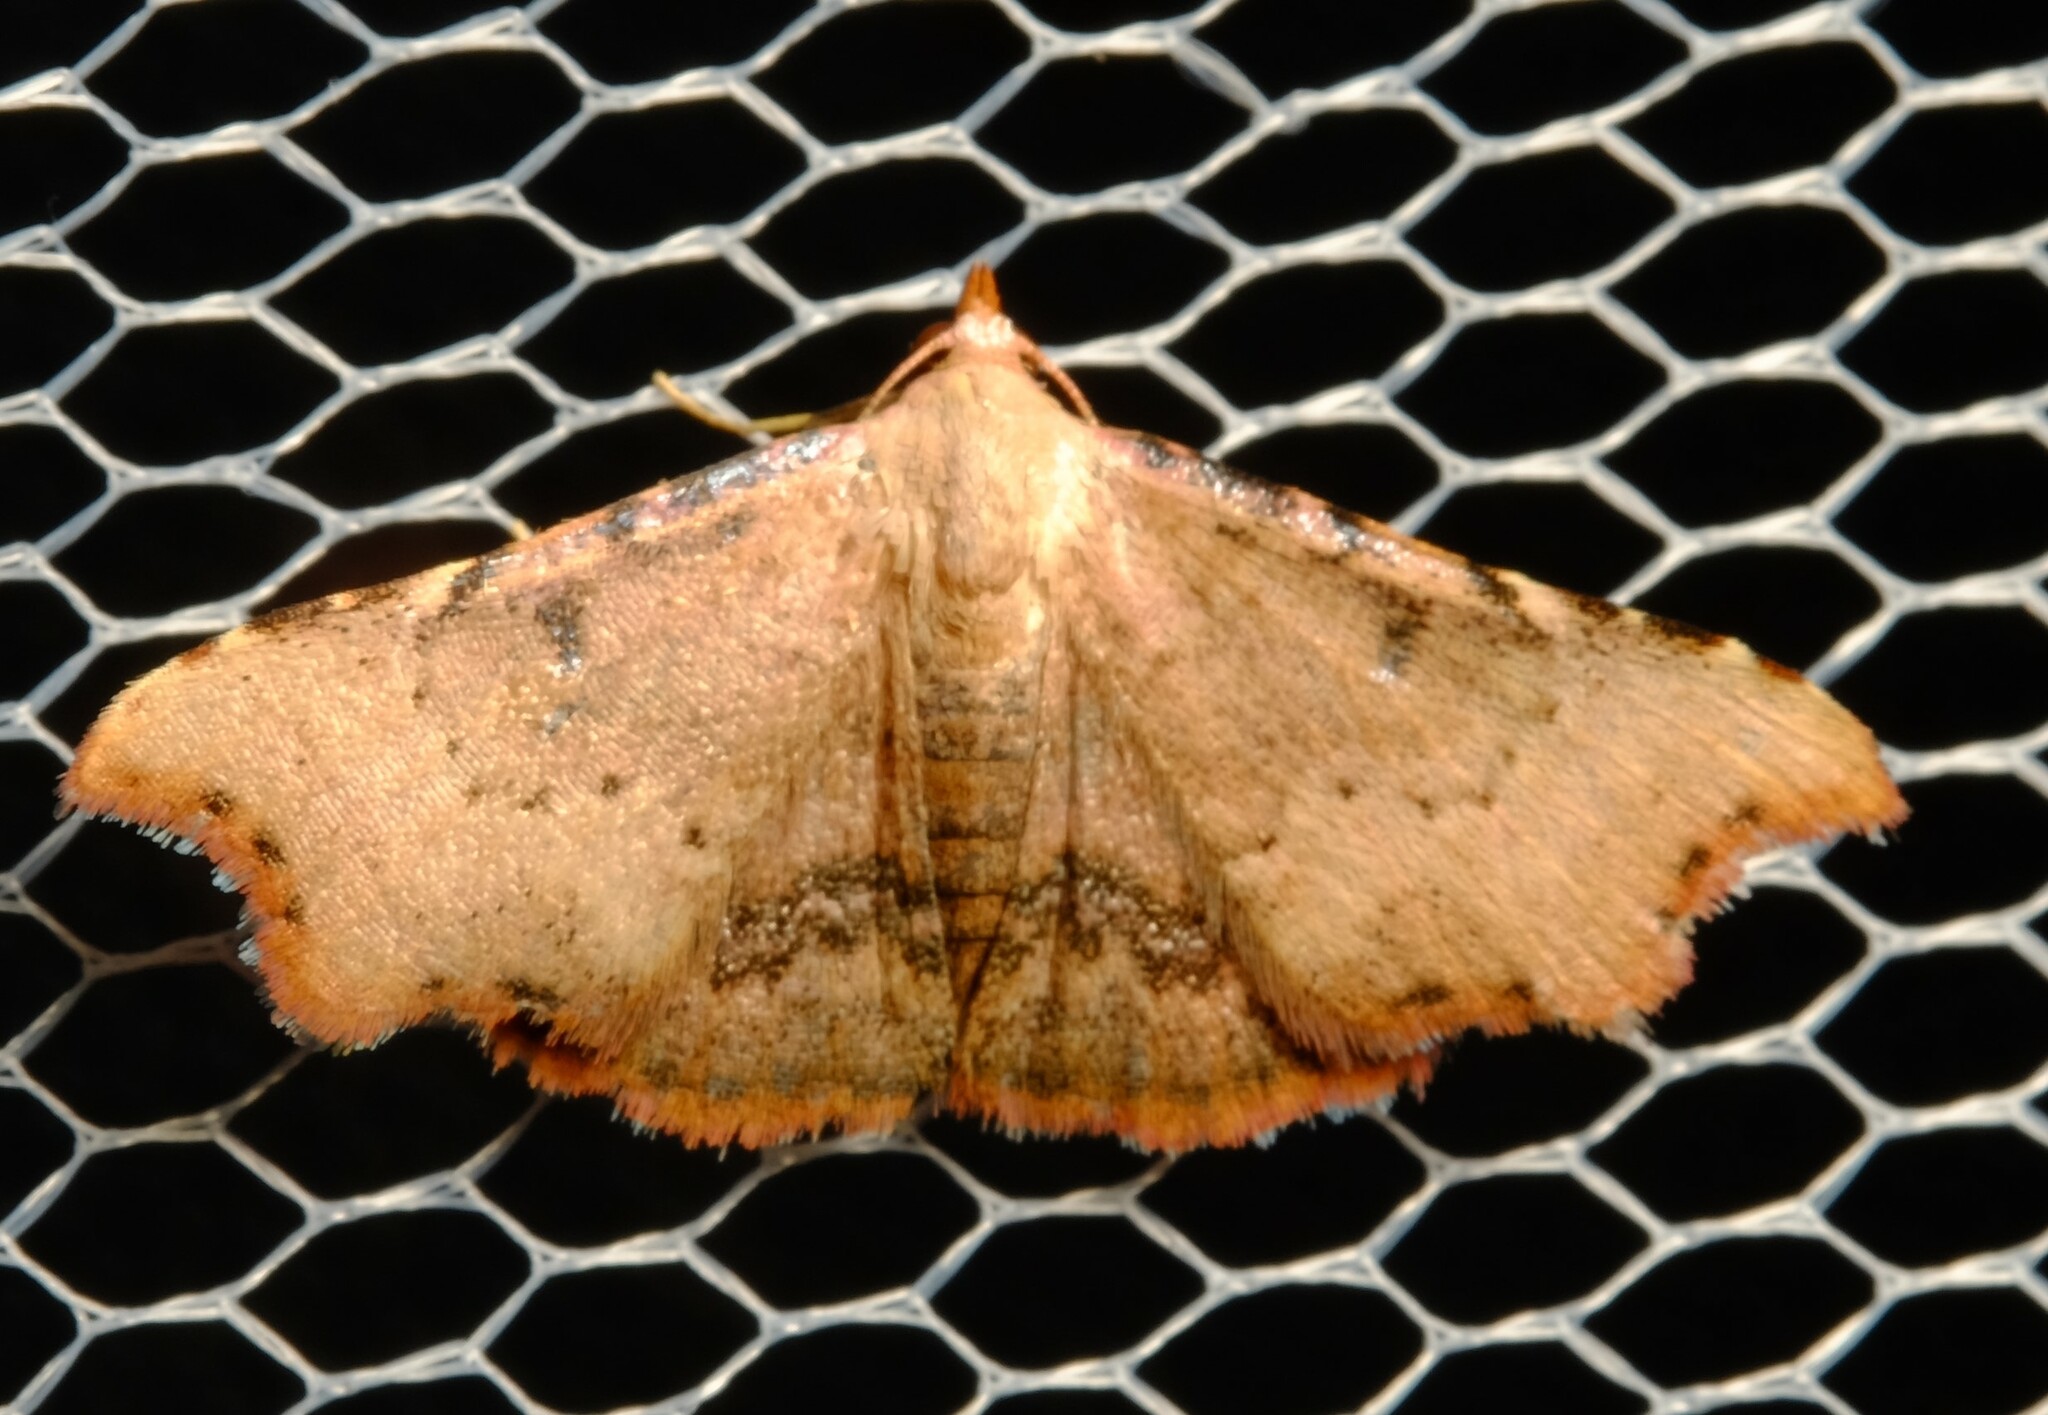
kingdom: Animalia
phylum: Arthropoda
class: Insecta
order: Lepidoptera
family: Erebidae
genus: Corgatha
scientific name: Corgatha dipyra
